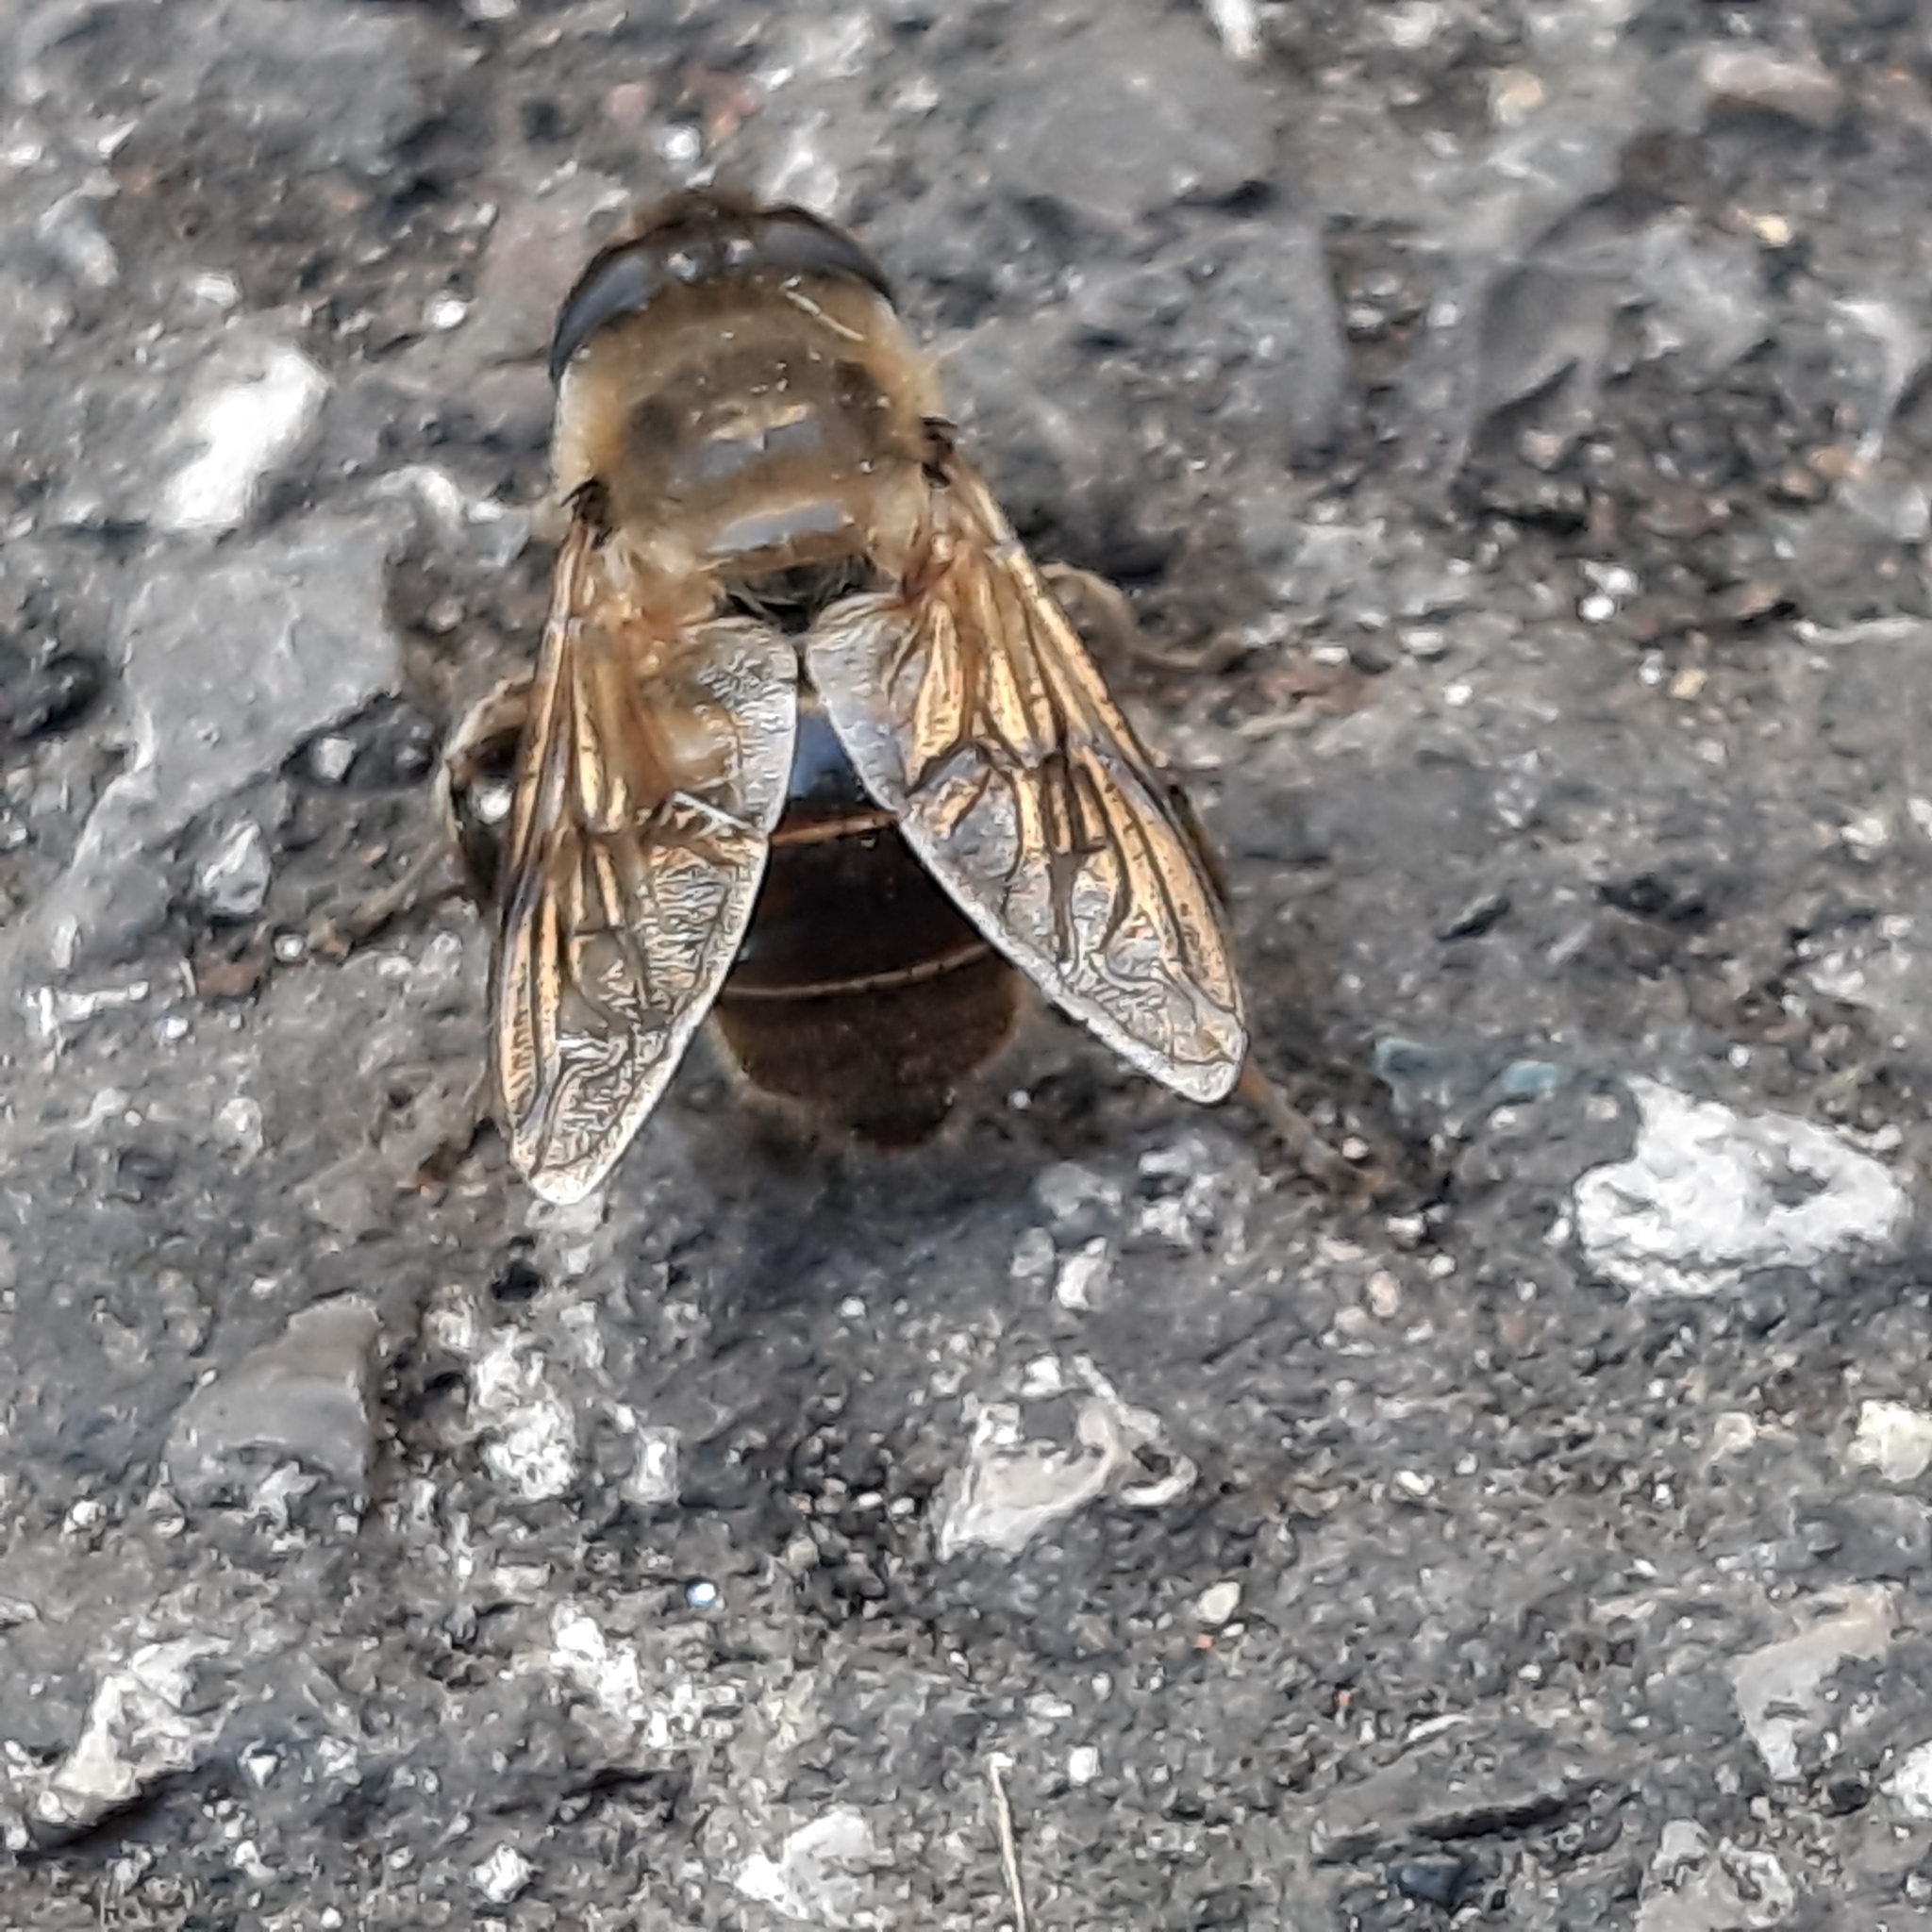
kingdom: Animalia
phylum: Arthropoda
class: Insecta
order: Diptera
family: Syrphidae
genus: Eristalis
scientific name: Eristalis tenax
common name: Drone fly
